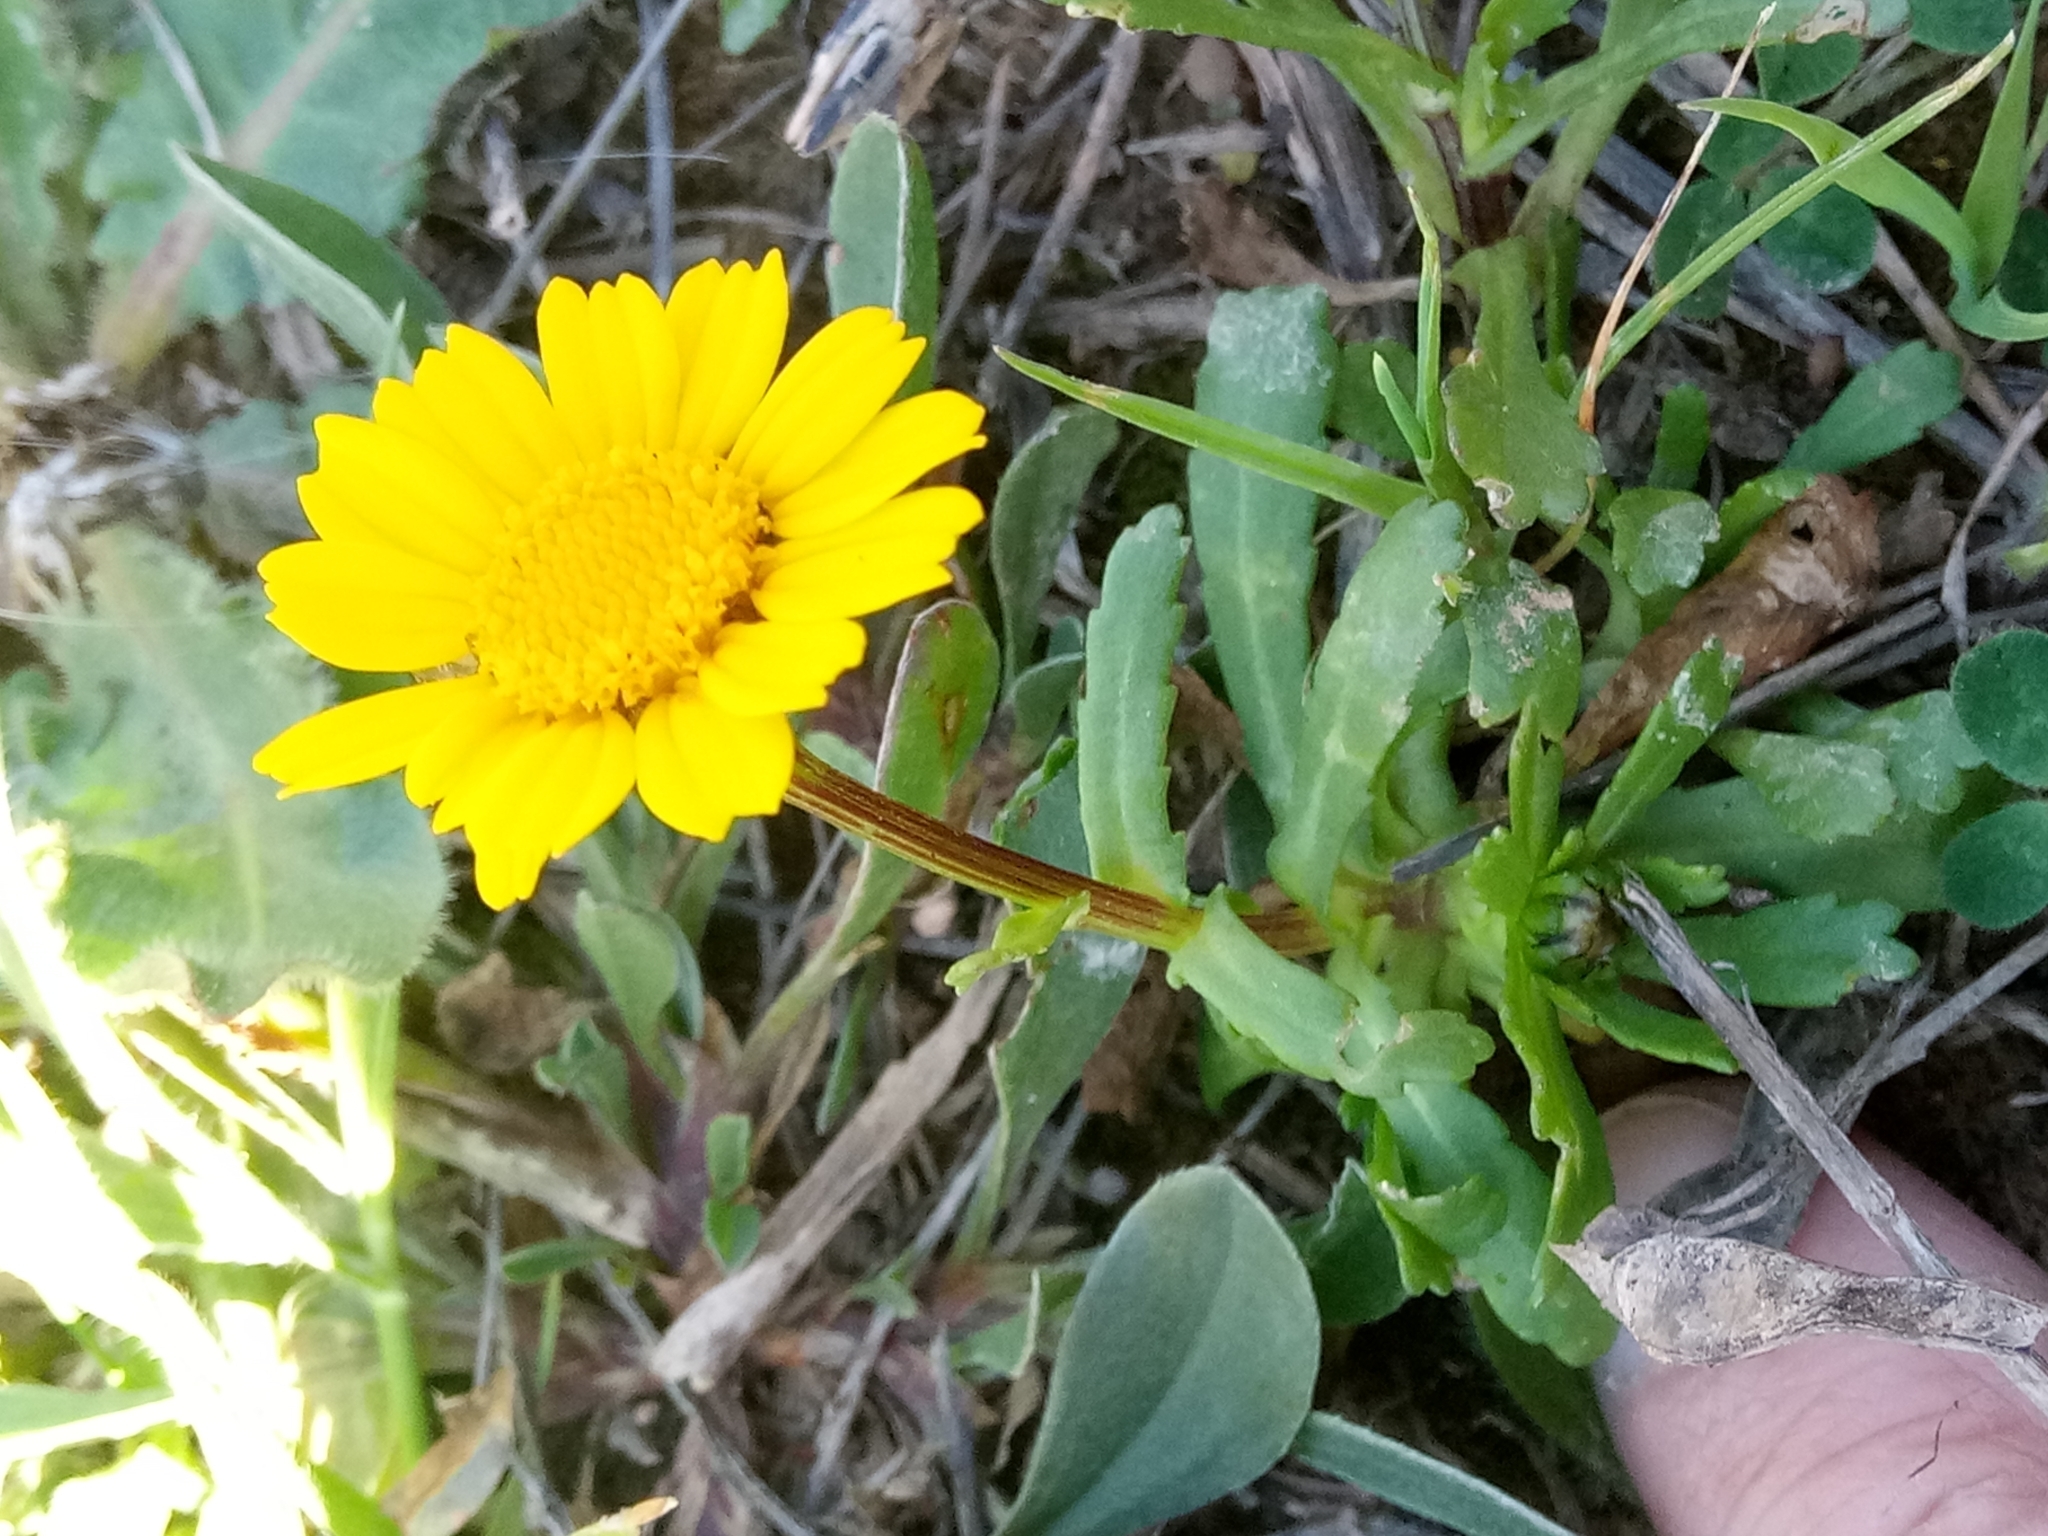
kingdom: Plantae
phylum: Tracheophyta
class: Magnoliopsida
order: Asterales
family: Asteraceae
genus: Coleostephus
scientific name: Coleostephus myconis
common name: Mediterranean marigold
